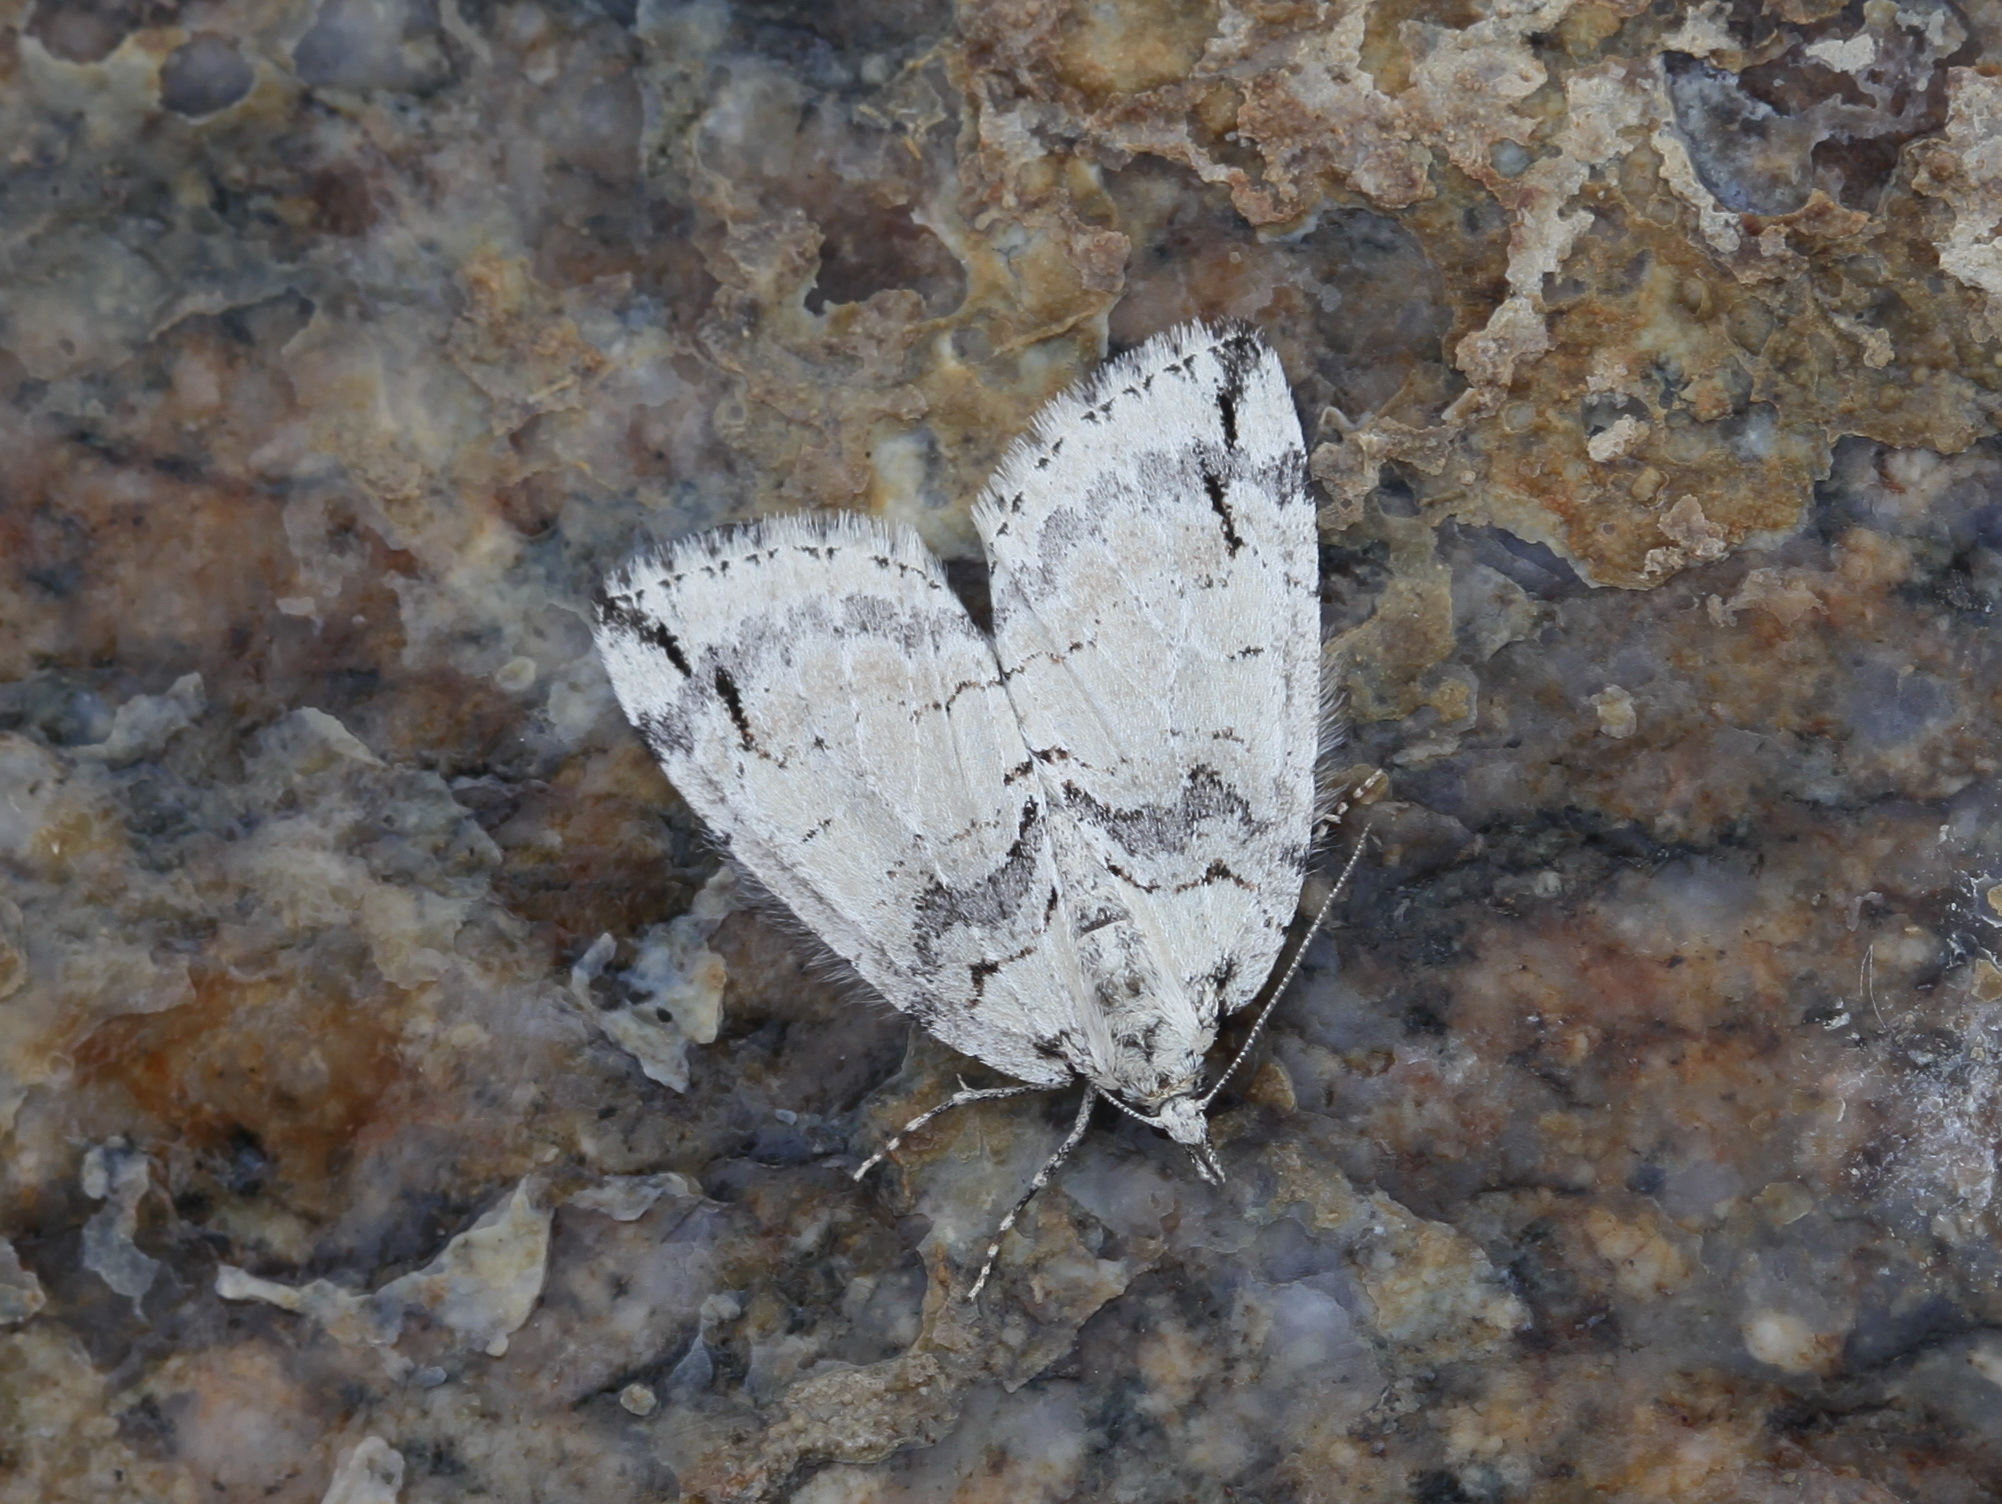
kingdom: Animalia
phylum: Arthropoda
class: Insecta
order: Lepidoptera
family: Geometridae
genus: Hydriomena
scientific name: Hydriomena impluviata
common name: May highflyer
